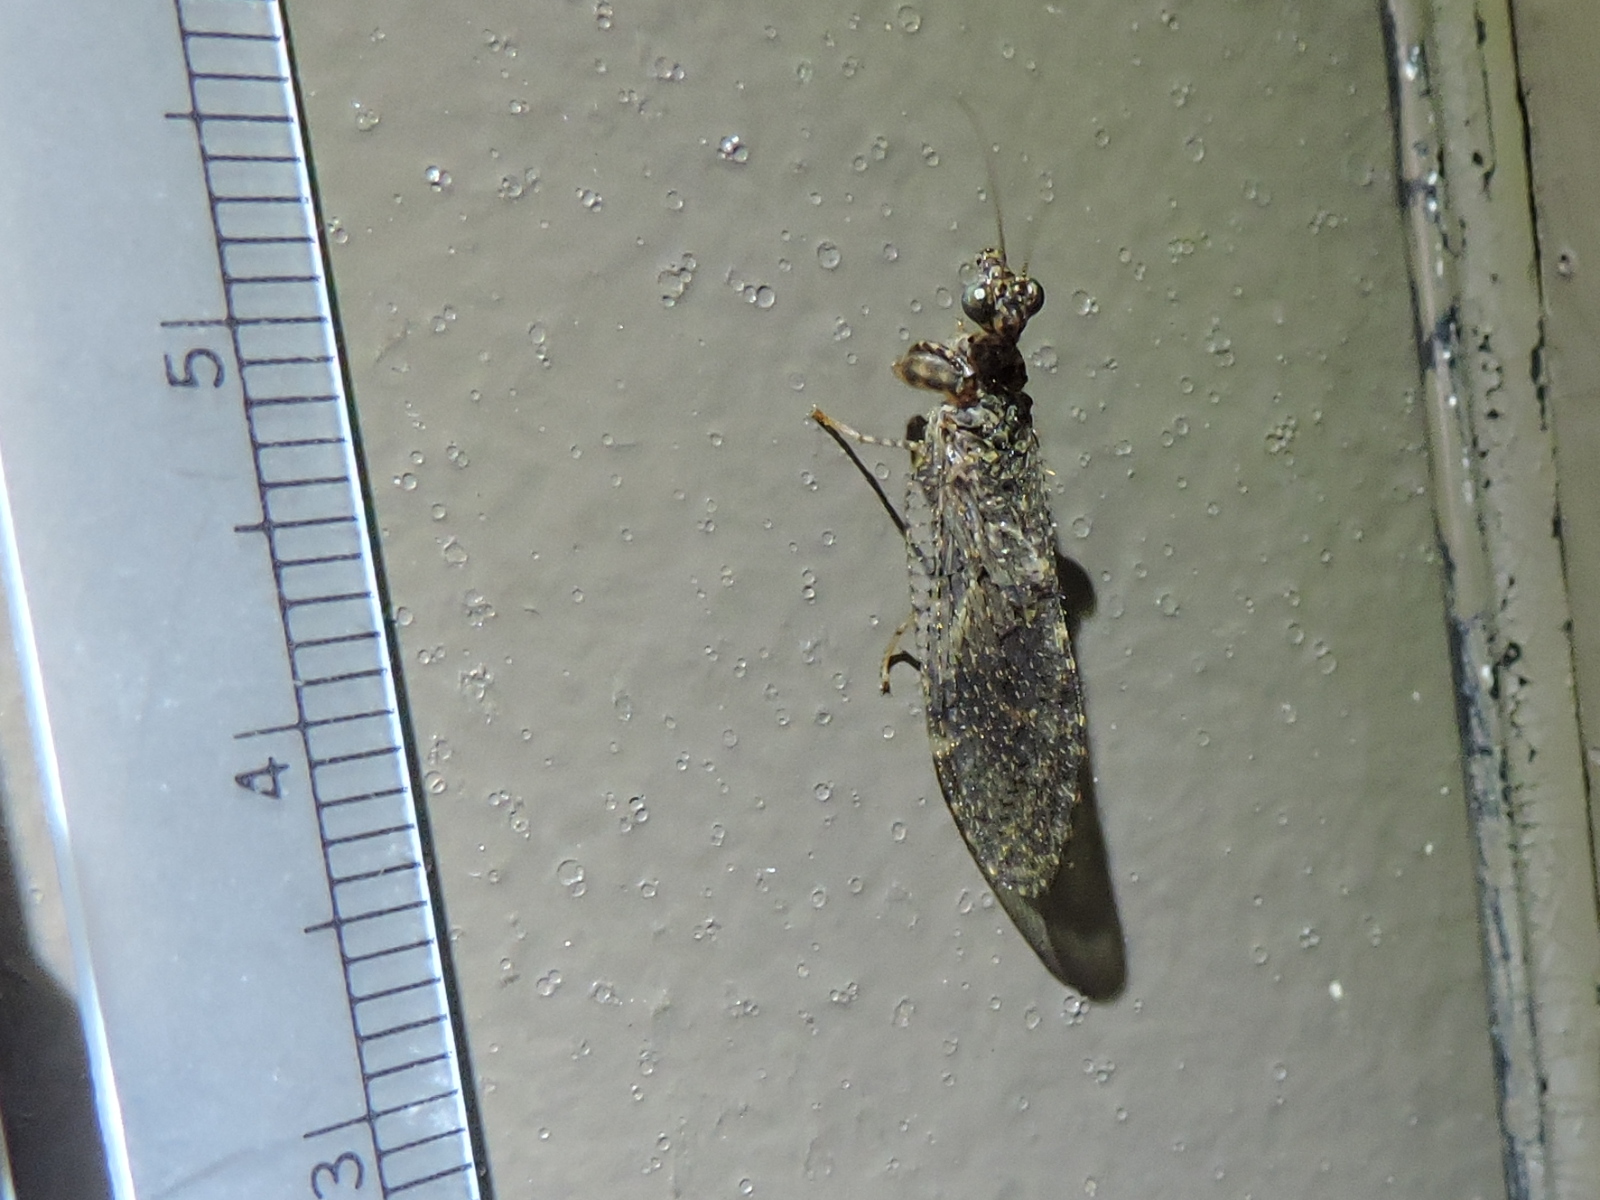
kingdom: Animalia
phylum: Arthropoda
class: Insecta
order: Neuroptera
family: Mantispidae
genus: Plega
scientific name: Plega dactylota
